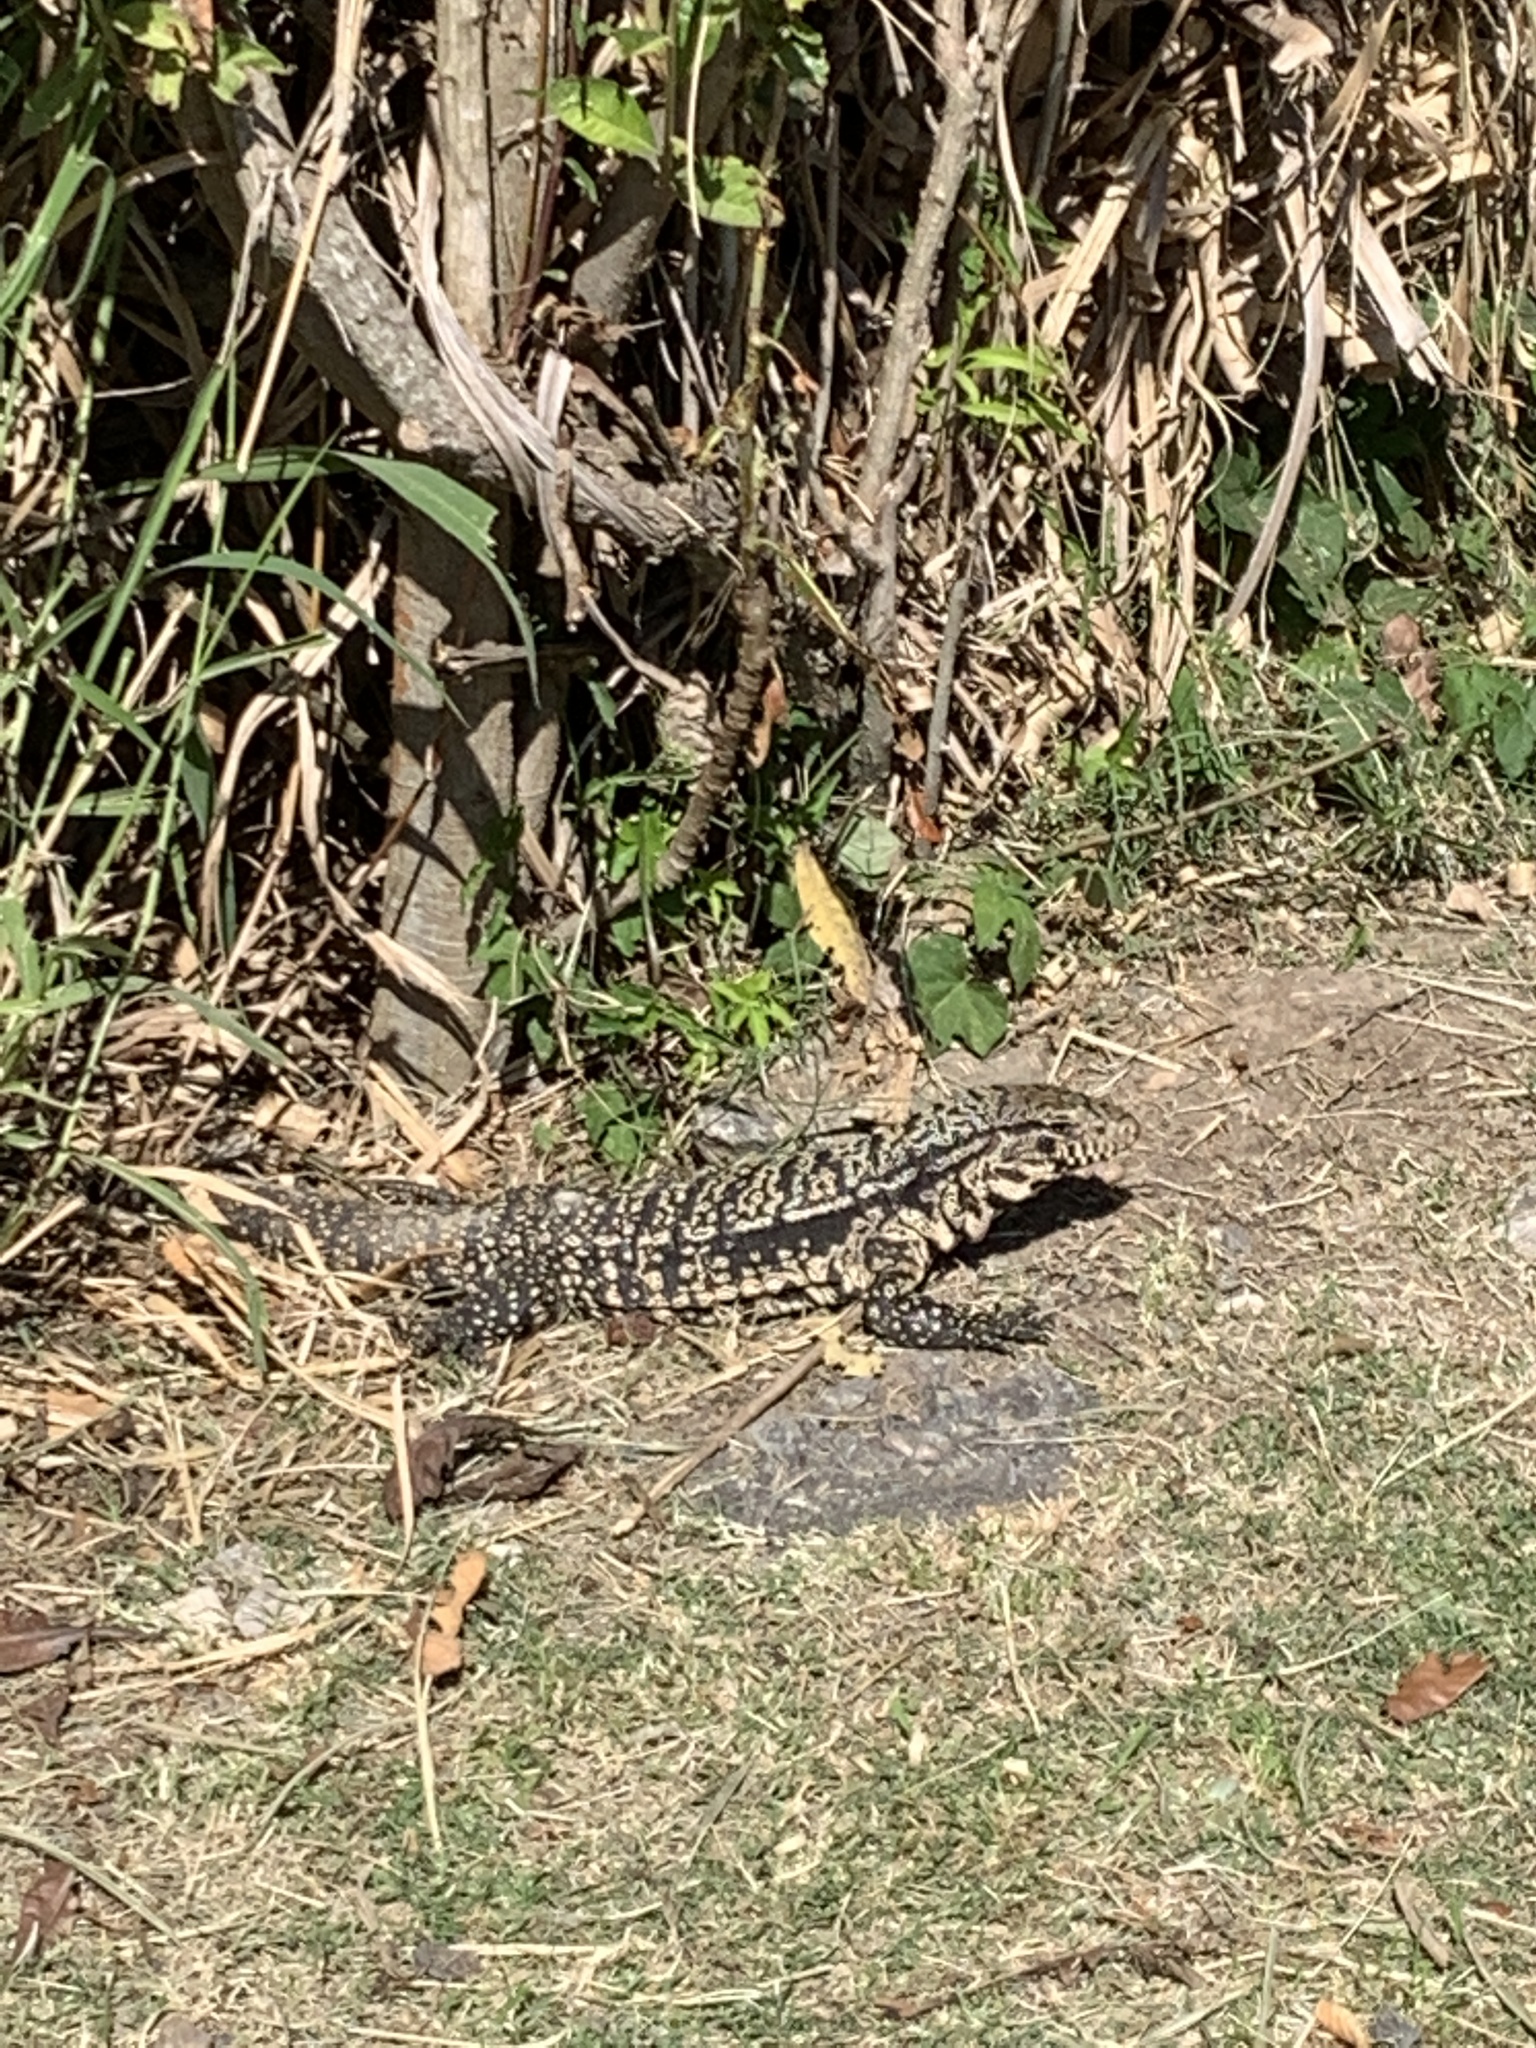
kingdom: Animalia
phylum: Chordata
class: Squamata
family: Teiidae
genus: Salvator
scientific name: Salvator merianae
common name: Argentine black and white tegu
